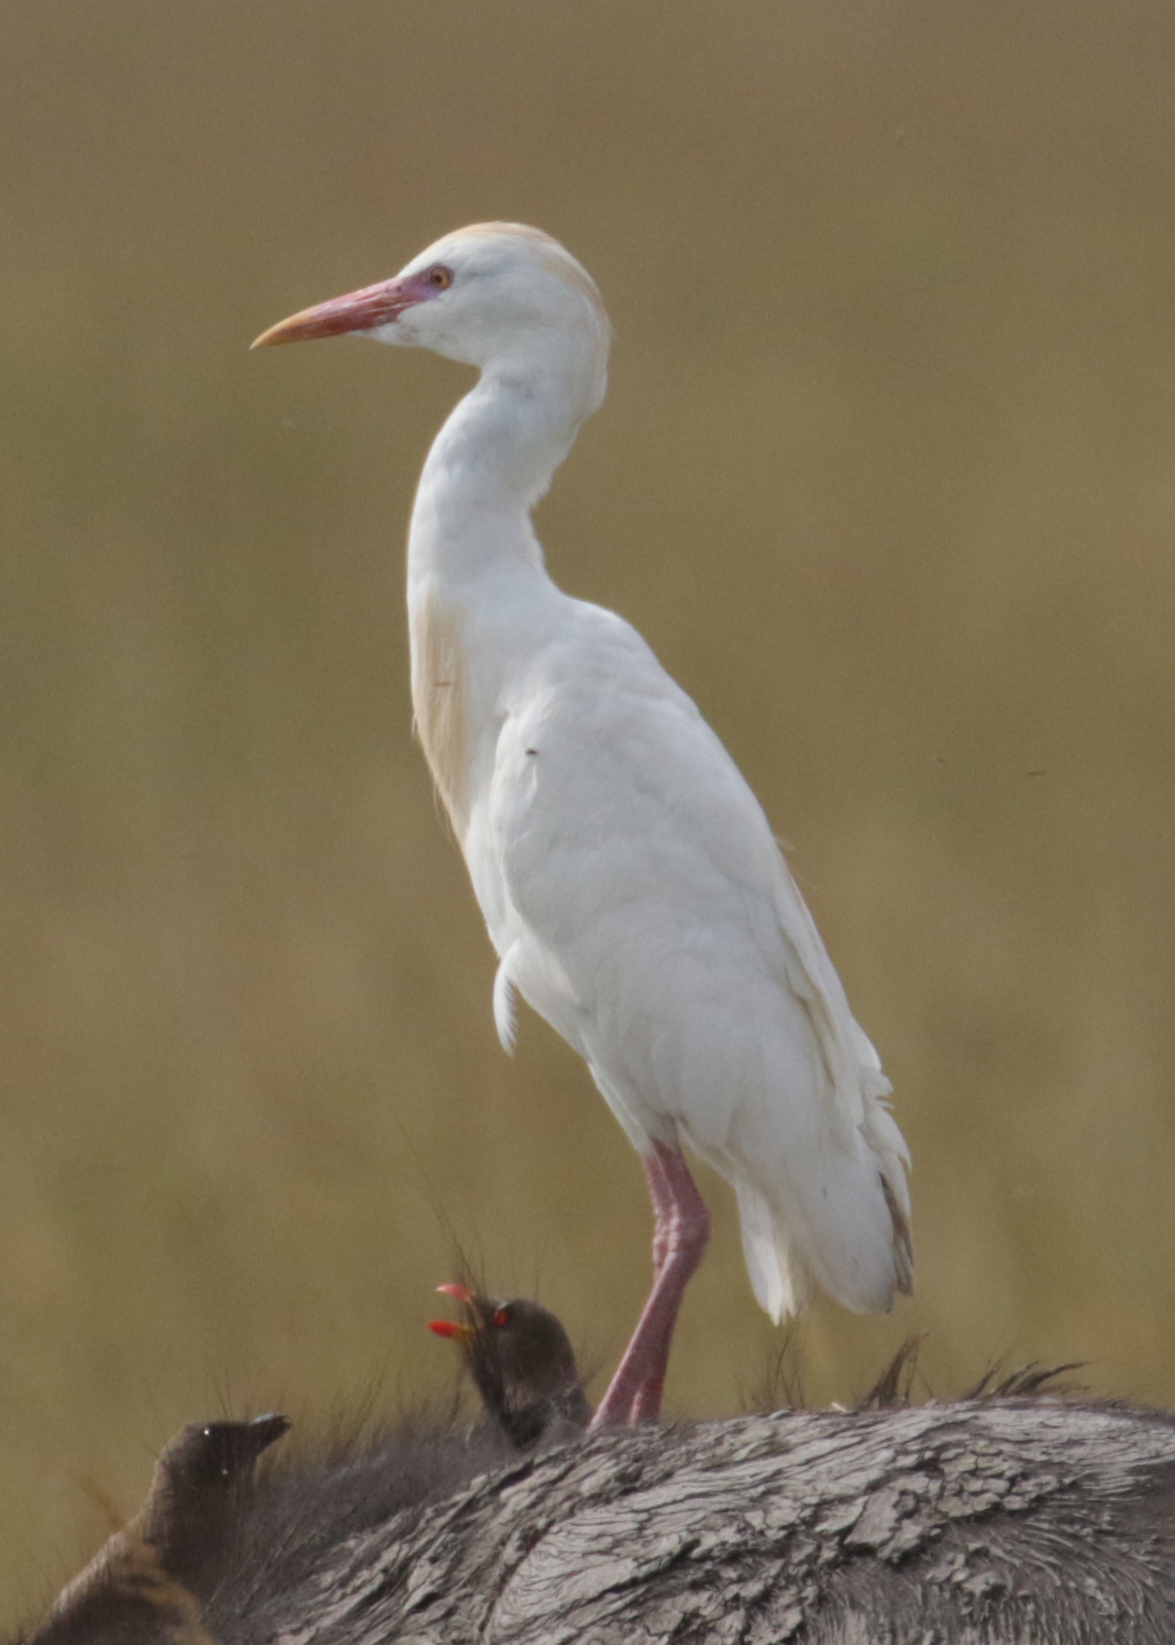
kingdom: Animalia
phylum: Chordata
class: Aves
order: Pelecaniformes
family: Ardeidae
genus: Bubulcus
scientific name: Bubulcus ibis
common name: Cattle egret
